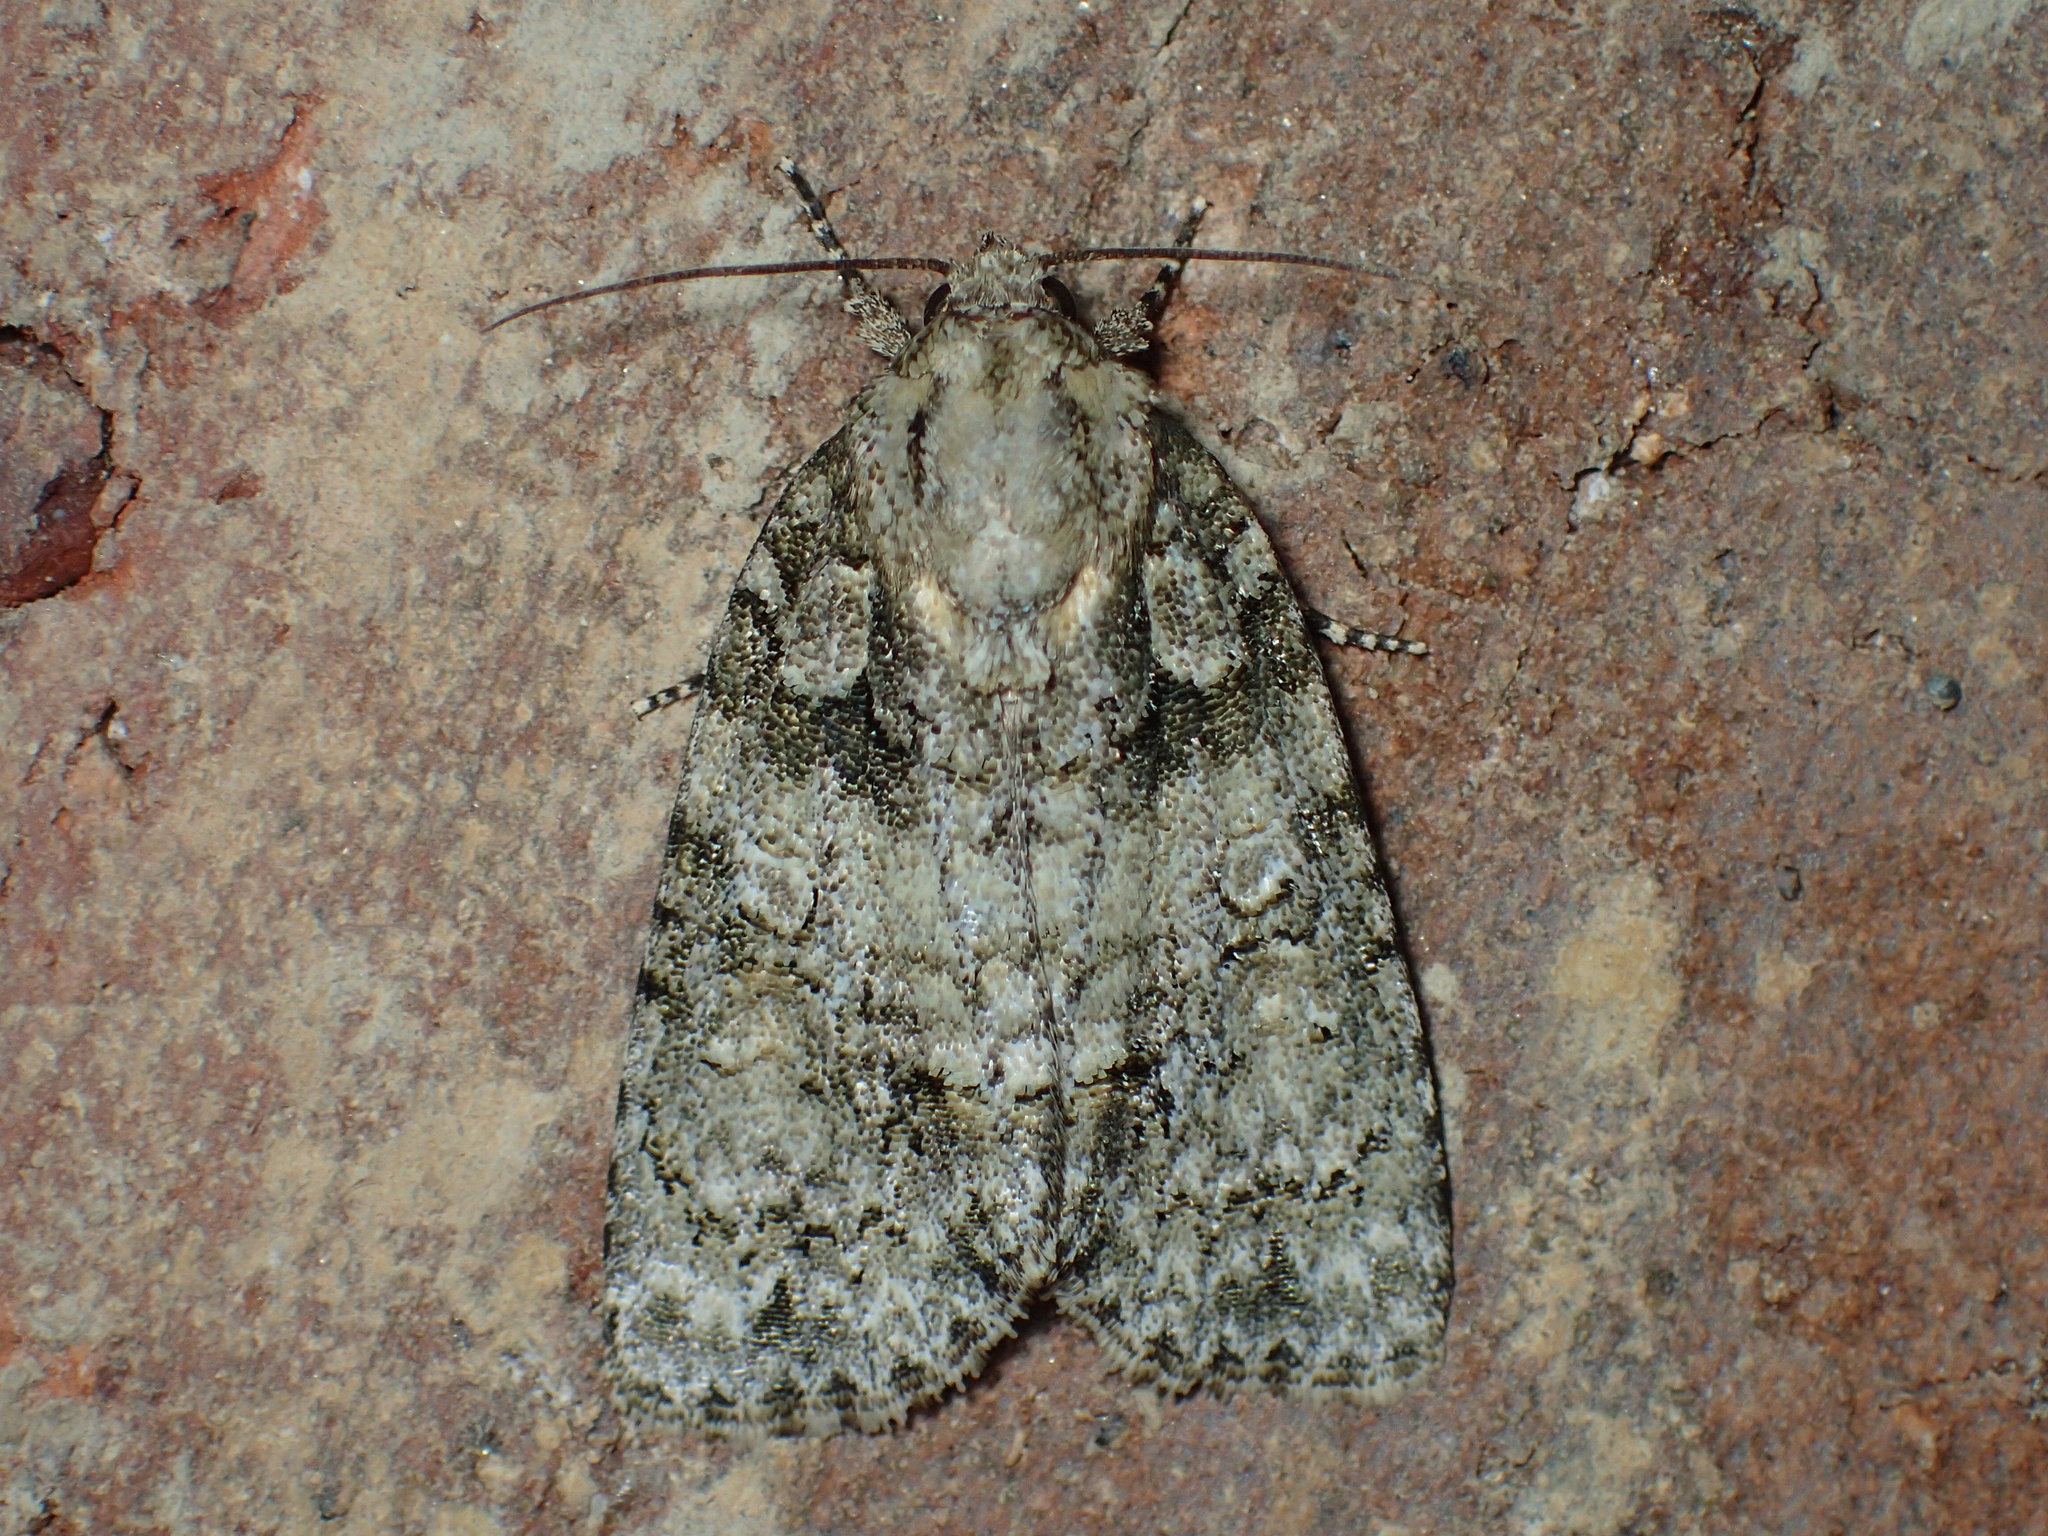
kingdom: Animalia
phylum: Arthropoda
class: Insecta
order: Lepidoptera
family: Noctuidae
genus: Acronicta
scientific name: Acronicta ovata
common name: Epauleted oak dagger
